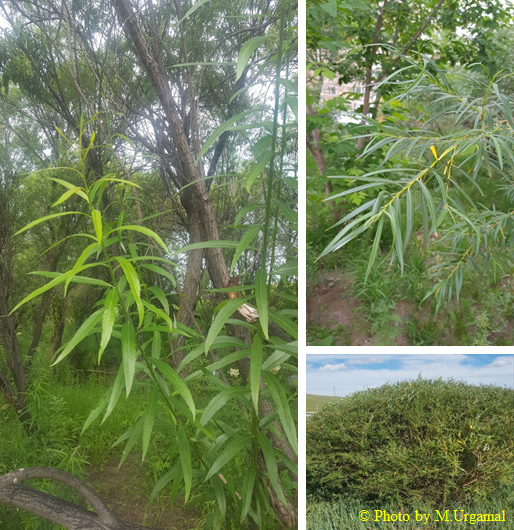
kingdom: Plantae
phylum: Tracheophyta
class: Magnoliopsida
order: Malpighiales
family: Salicaceae
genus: Salix
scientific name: Salix viminalis
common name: Osier
